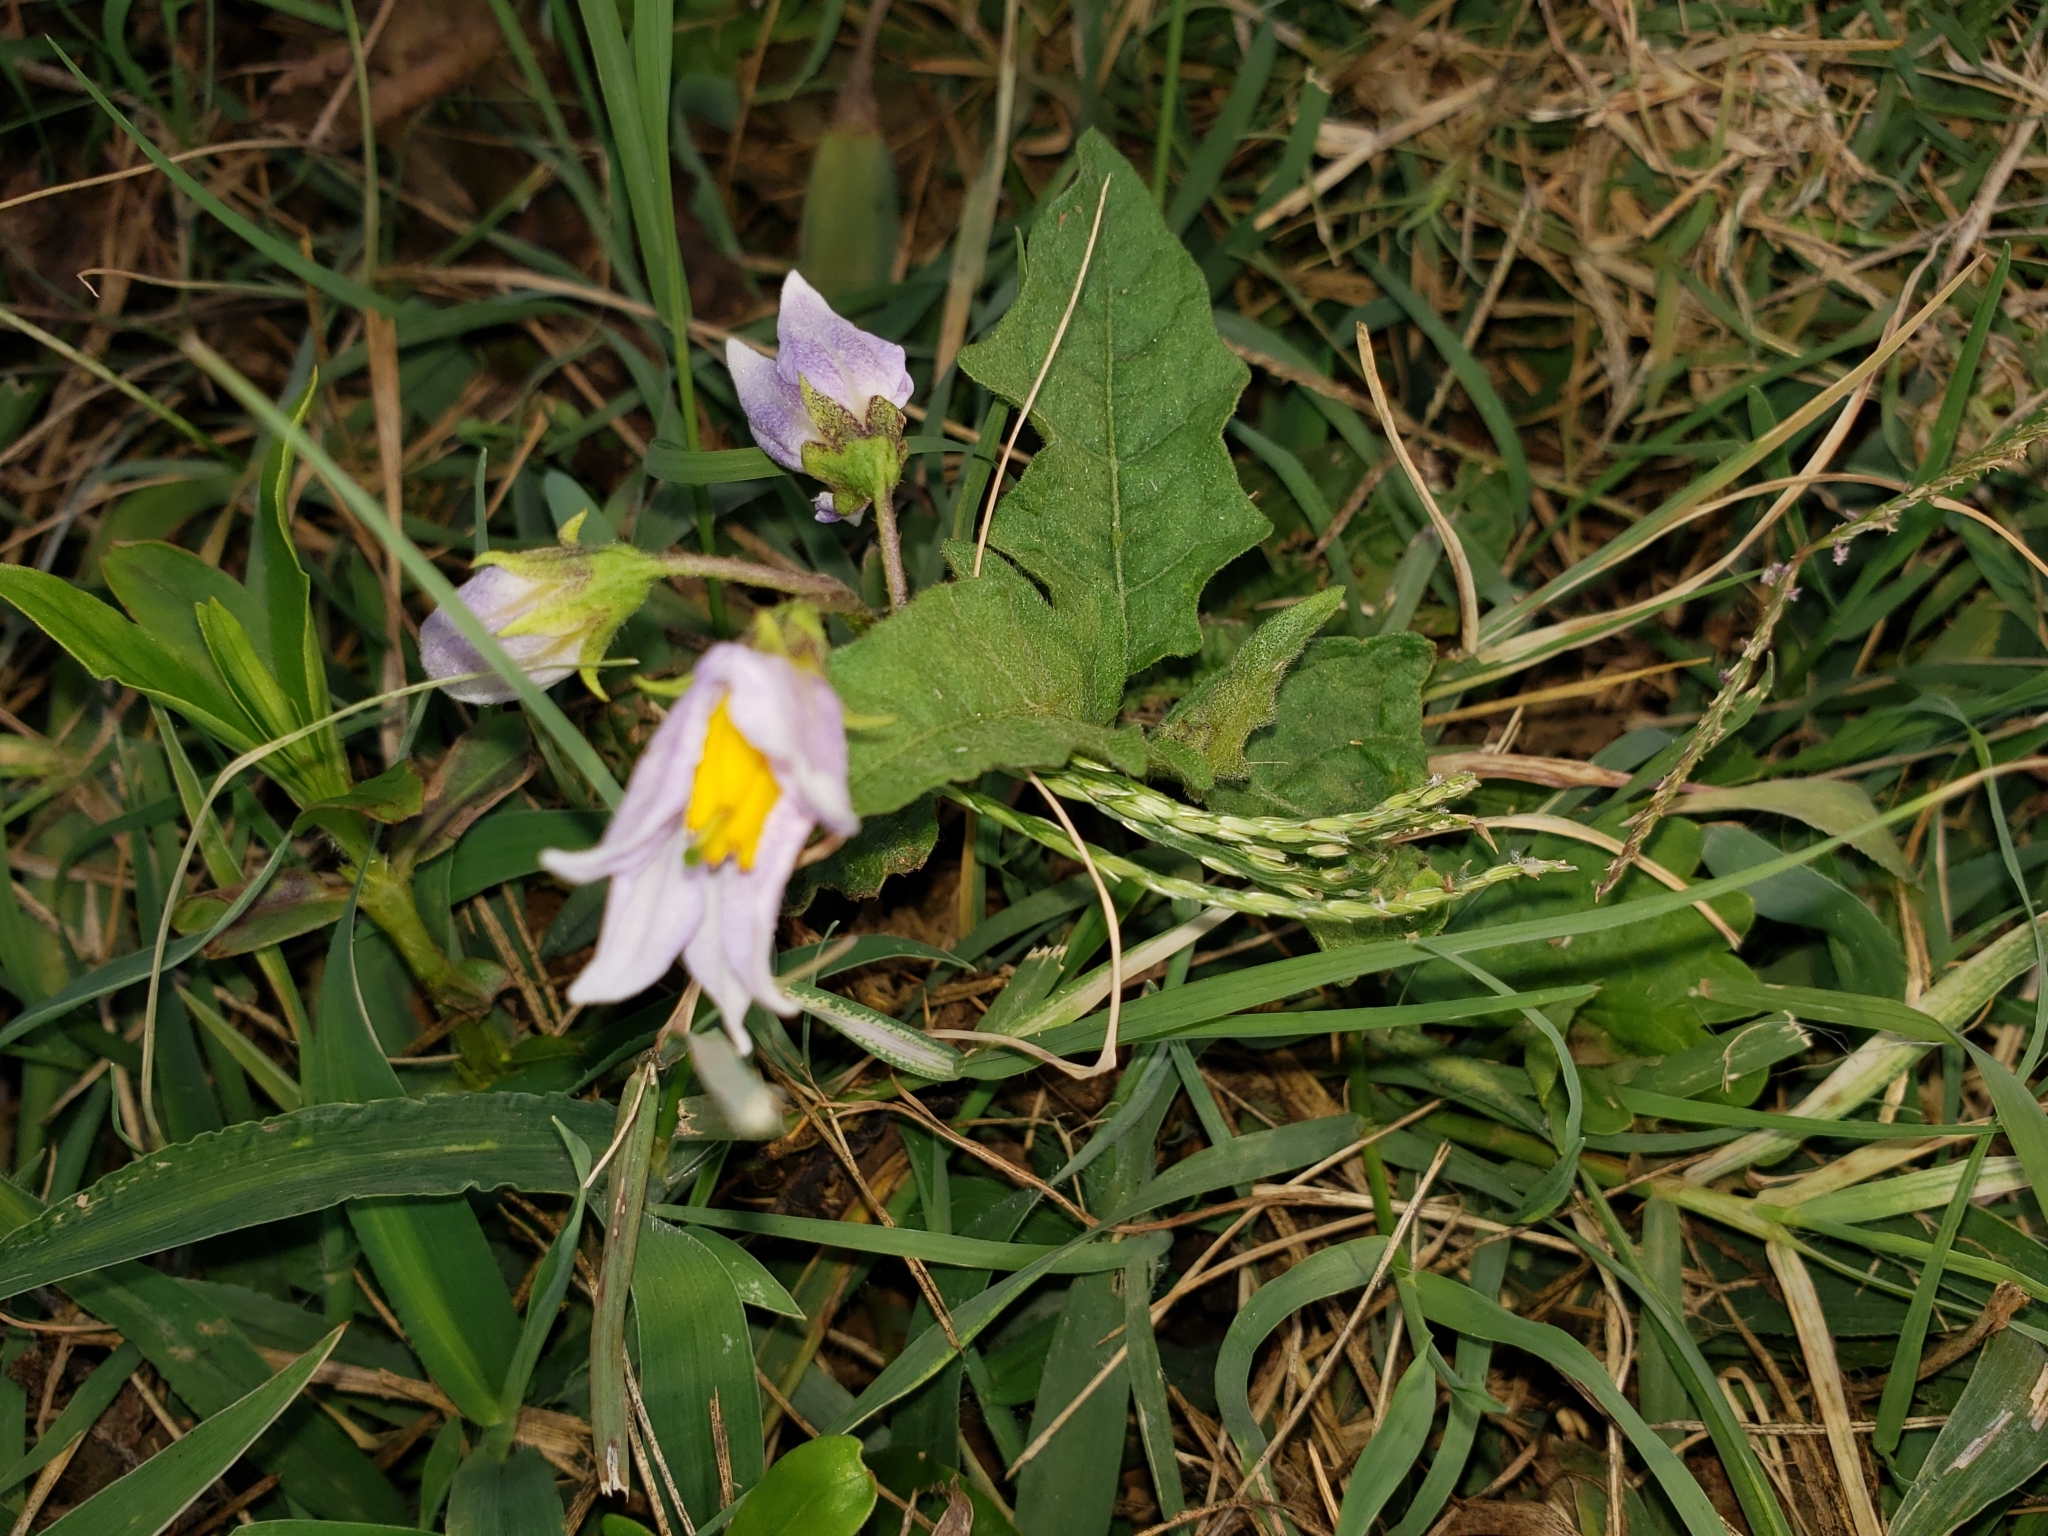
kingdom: Plantae
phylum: Tracheophyta
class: Magnoliopsida
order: Solanales
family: Solanaceae
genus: Solanum
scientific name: Solanum carolinense
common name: Horse-nettle
